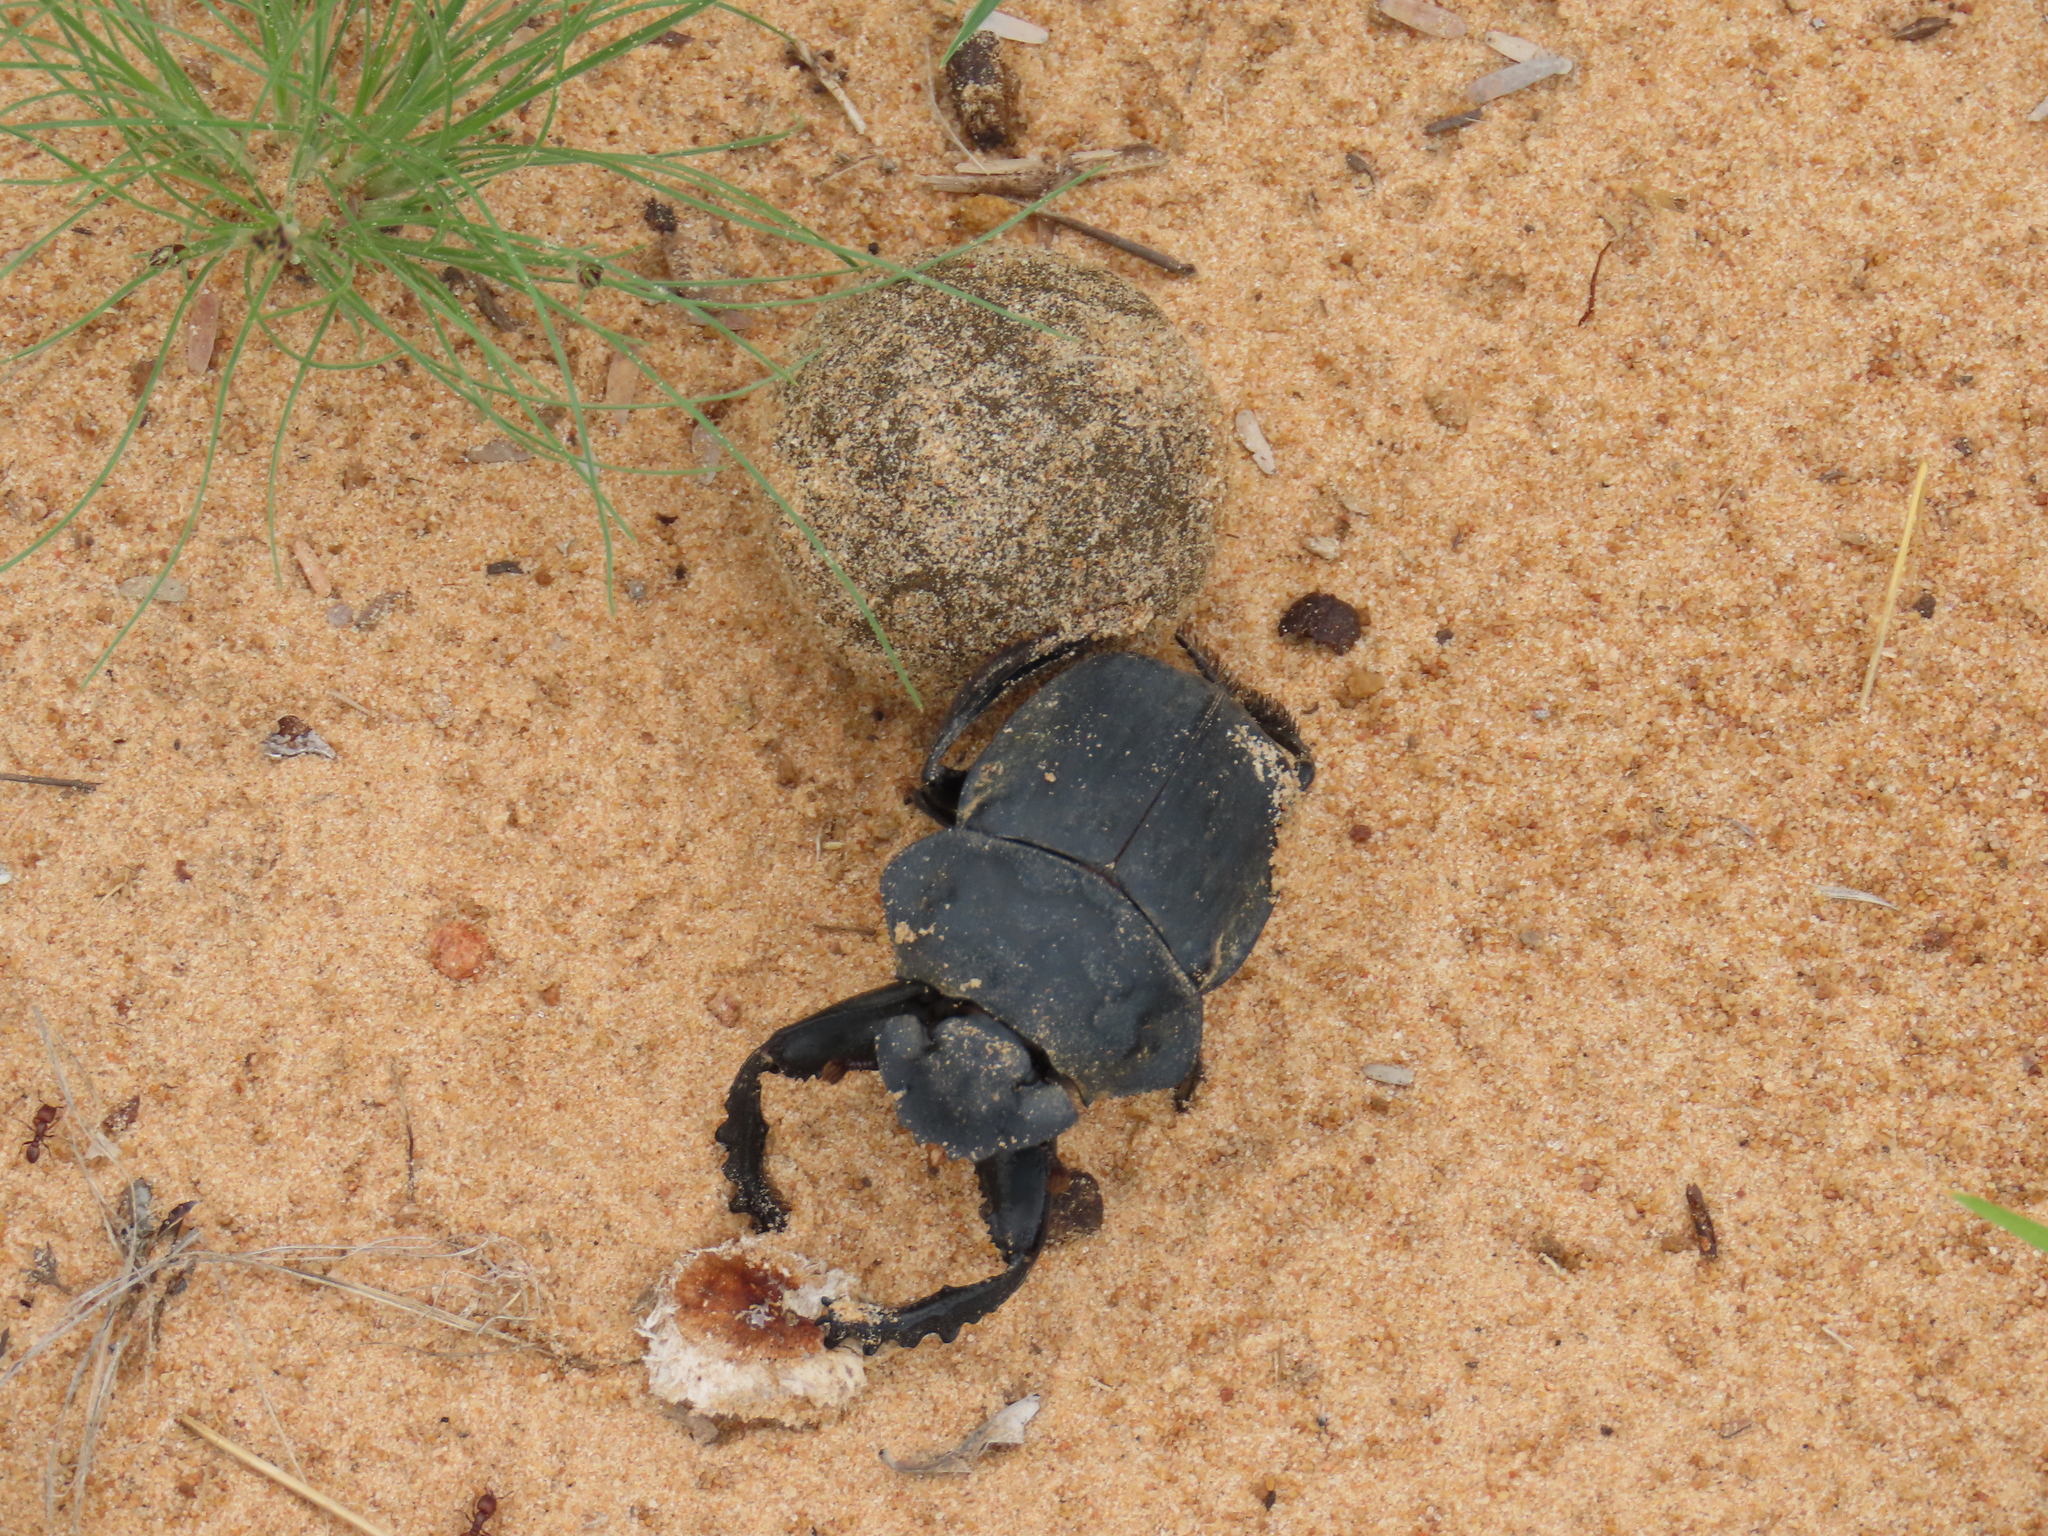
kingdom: Animalia
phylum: Arthropoda
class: Insecta
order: Coleoptera
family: Scarabaeidae
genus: Pachylomera
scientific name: Pachylomera femoralis
